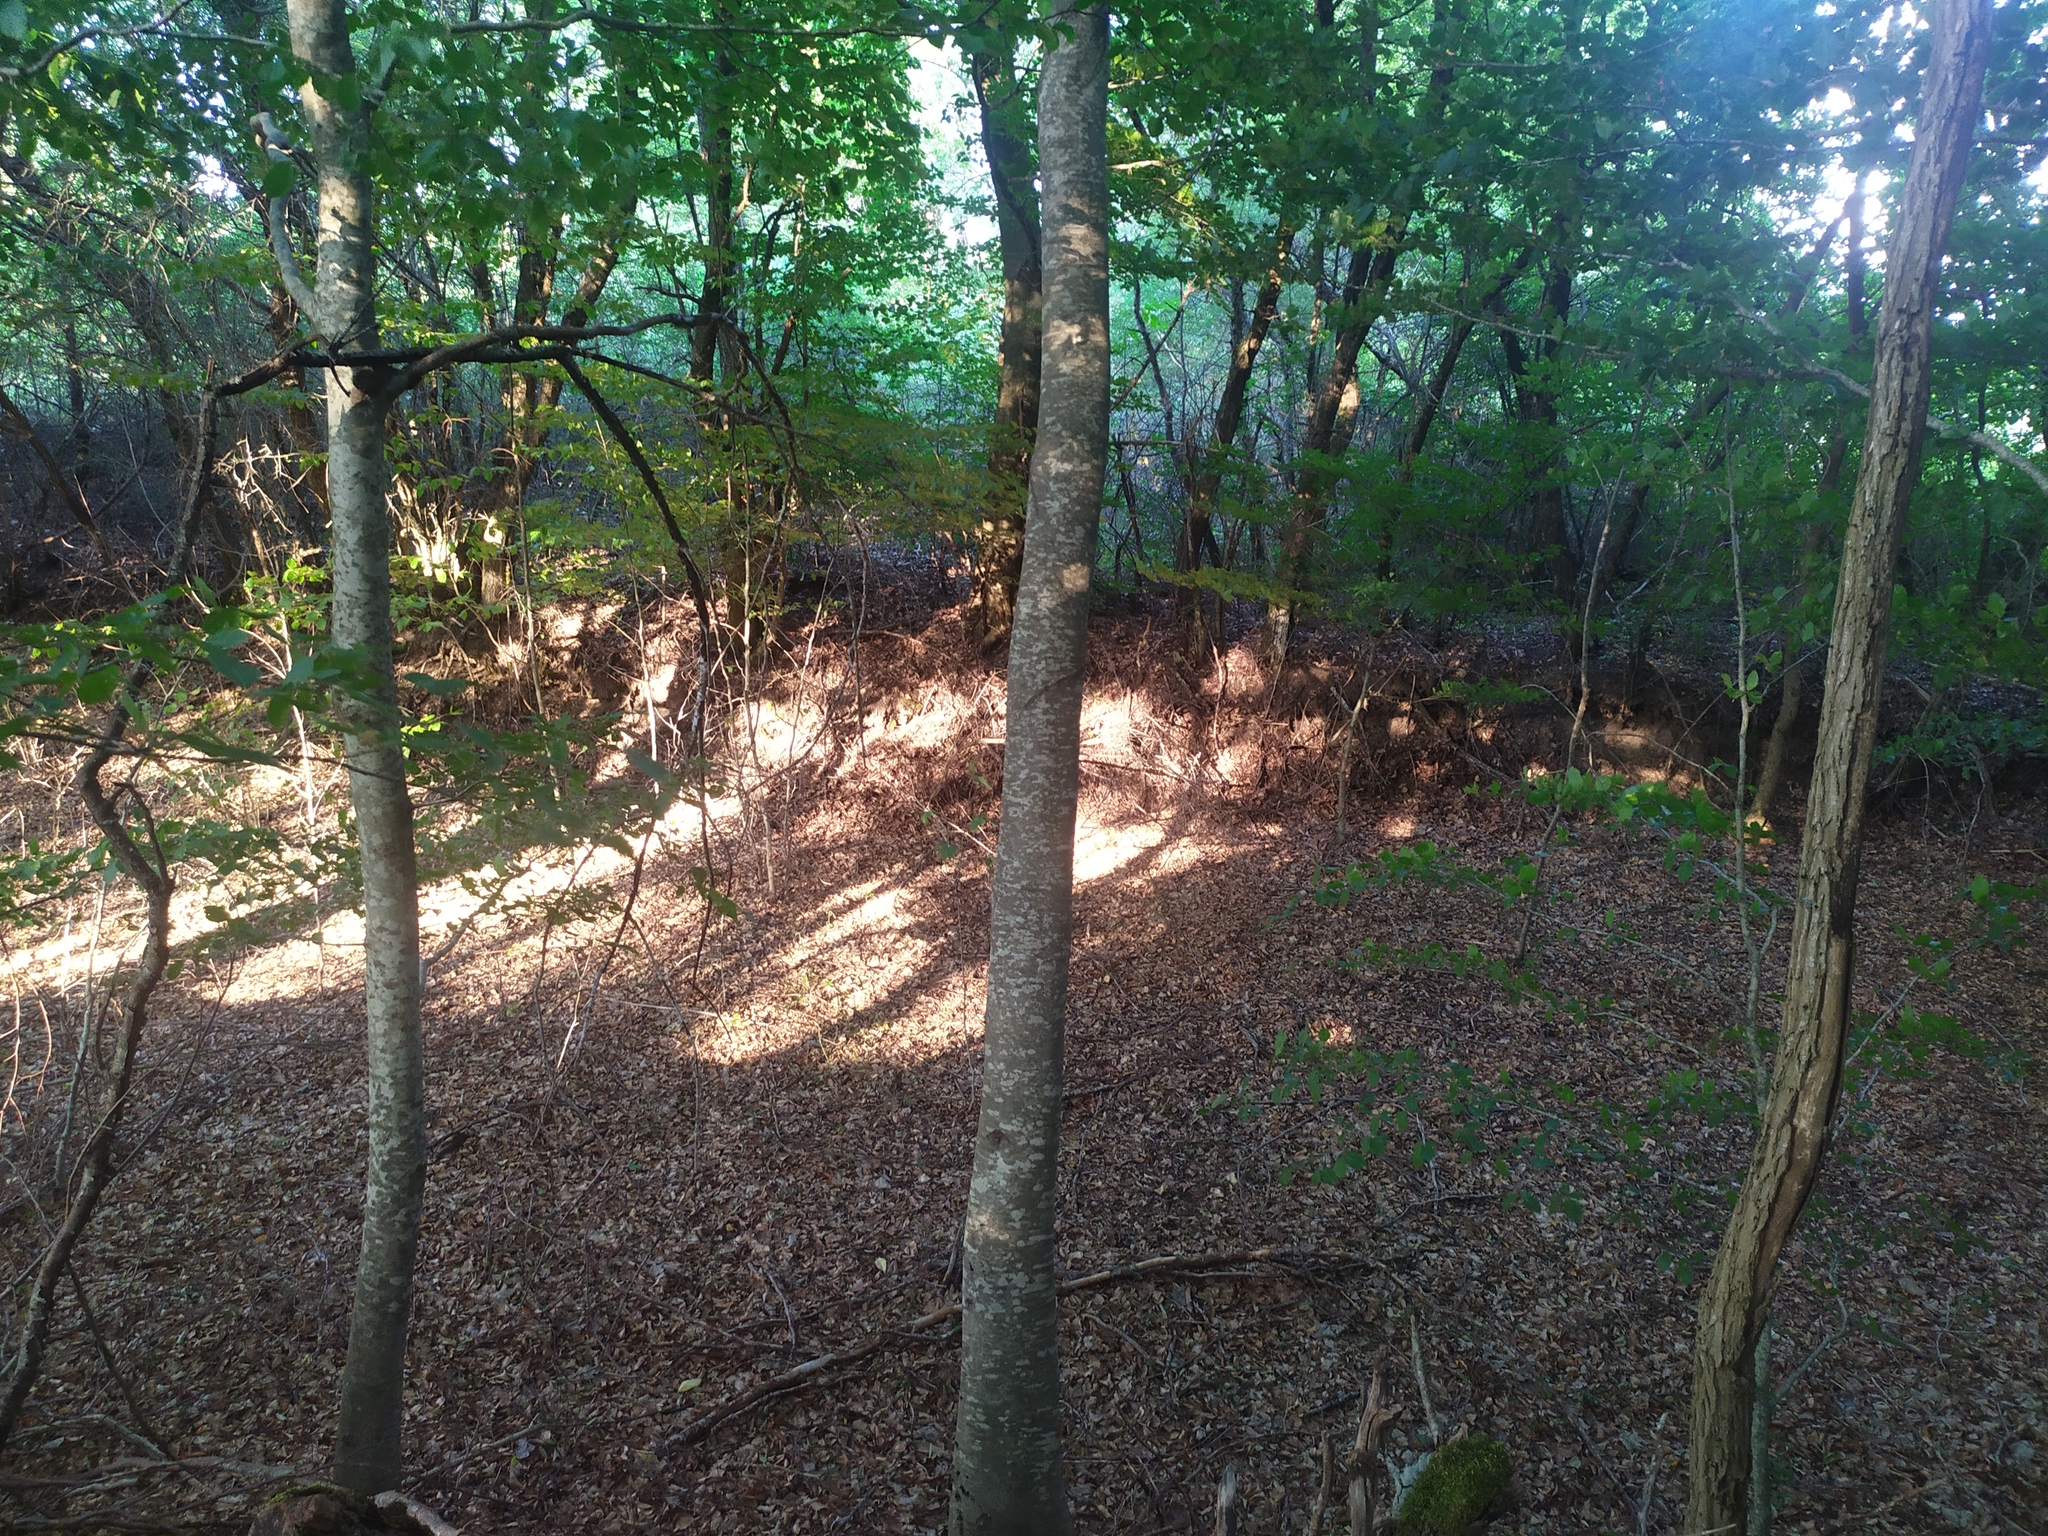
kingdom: Plantae
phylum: Tracheophyta
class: Magnoliopsida
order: Fagales
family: Fagaceae
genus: Fagus
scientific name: Fagus sylvatica
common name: Beech
